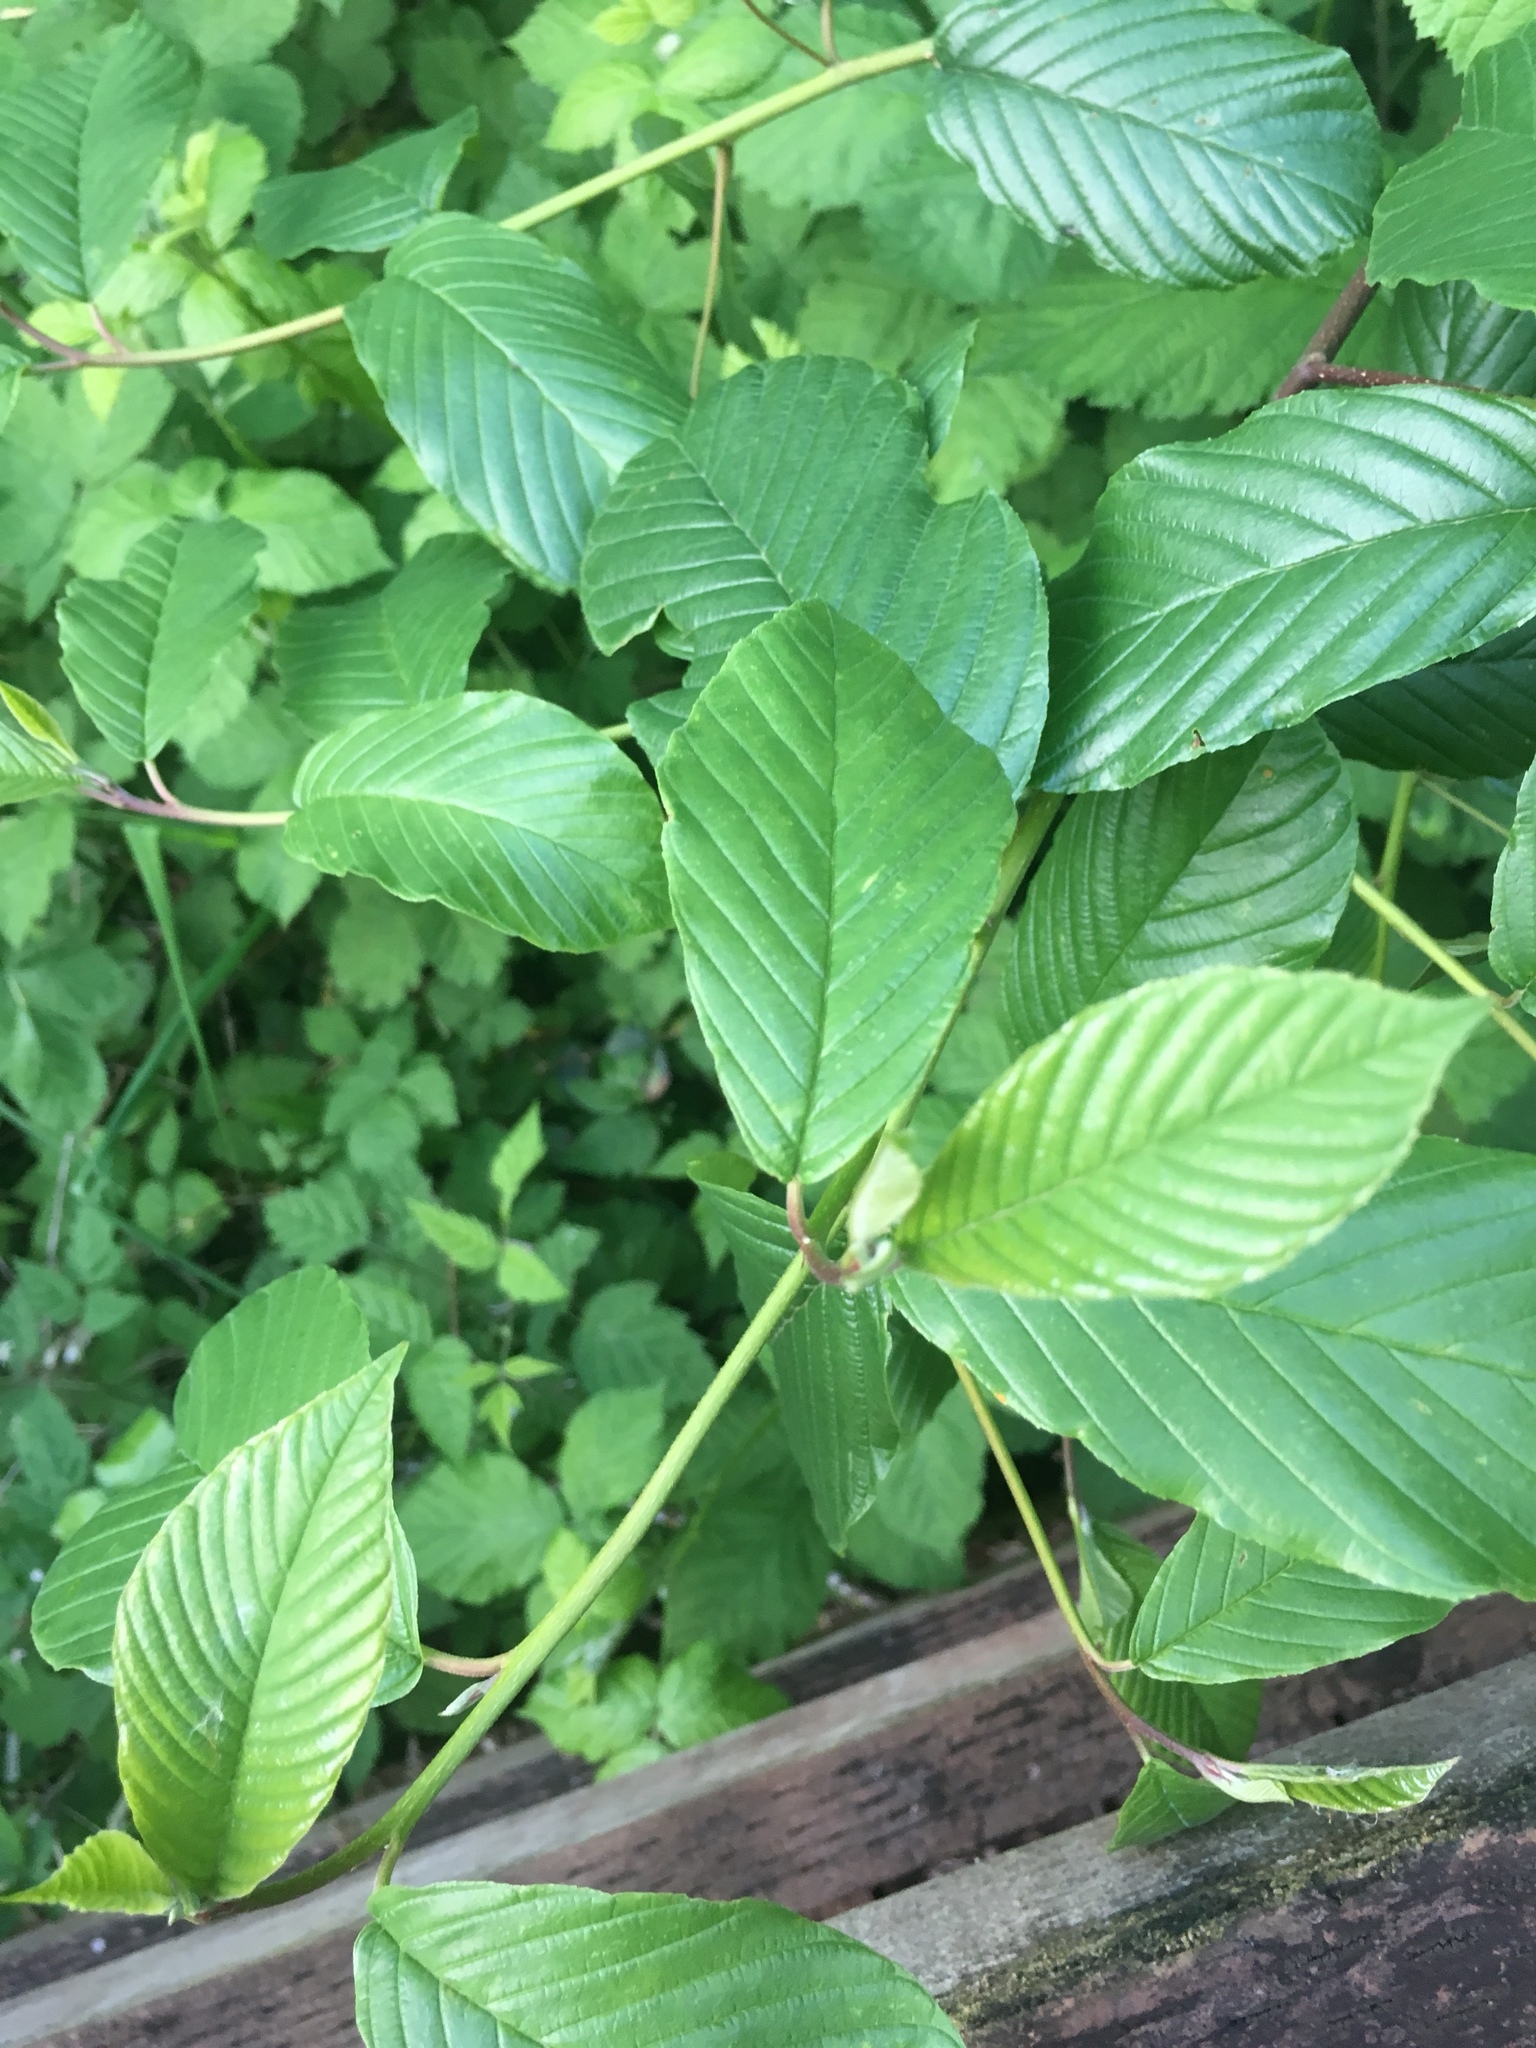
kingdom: Plantae
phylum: Tracheophyta
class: Magnoliopsida
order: Rosales
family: Rhamnaceae
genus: Frangula
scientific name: Frangula purshiana
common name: Cascara buckthorn
